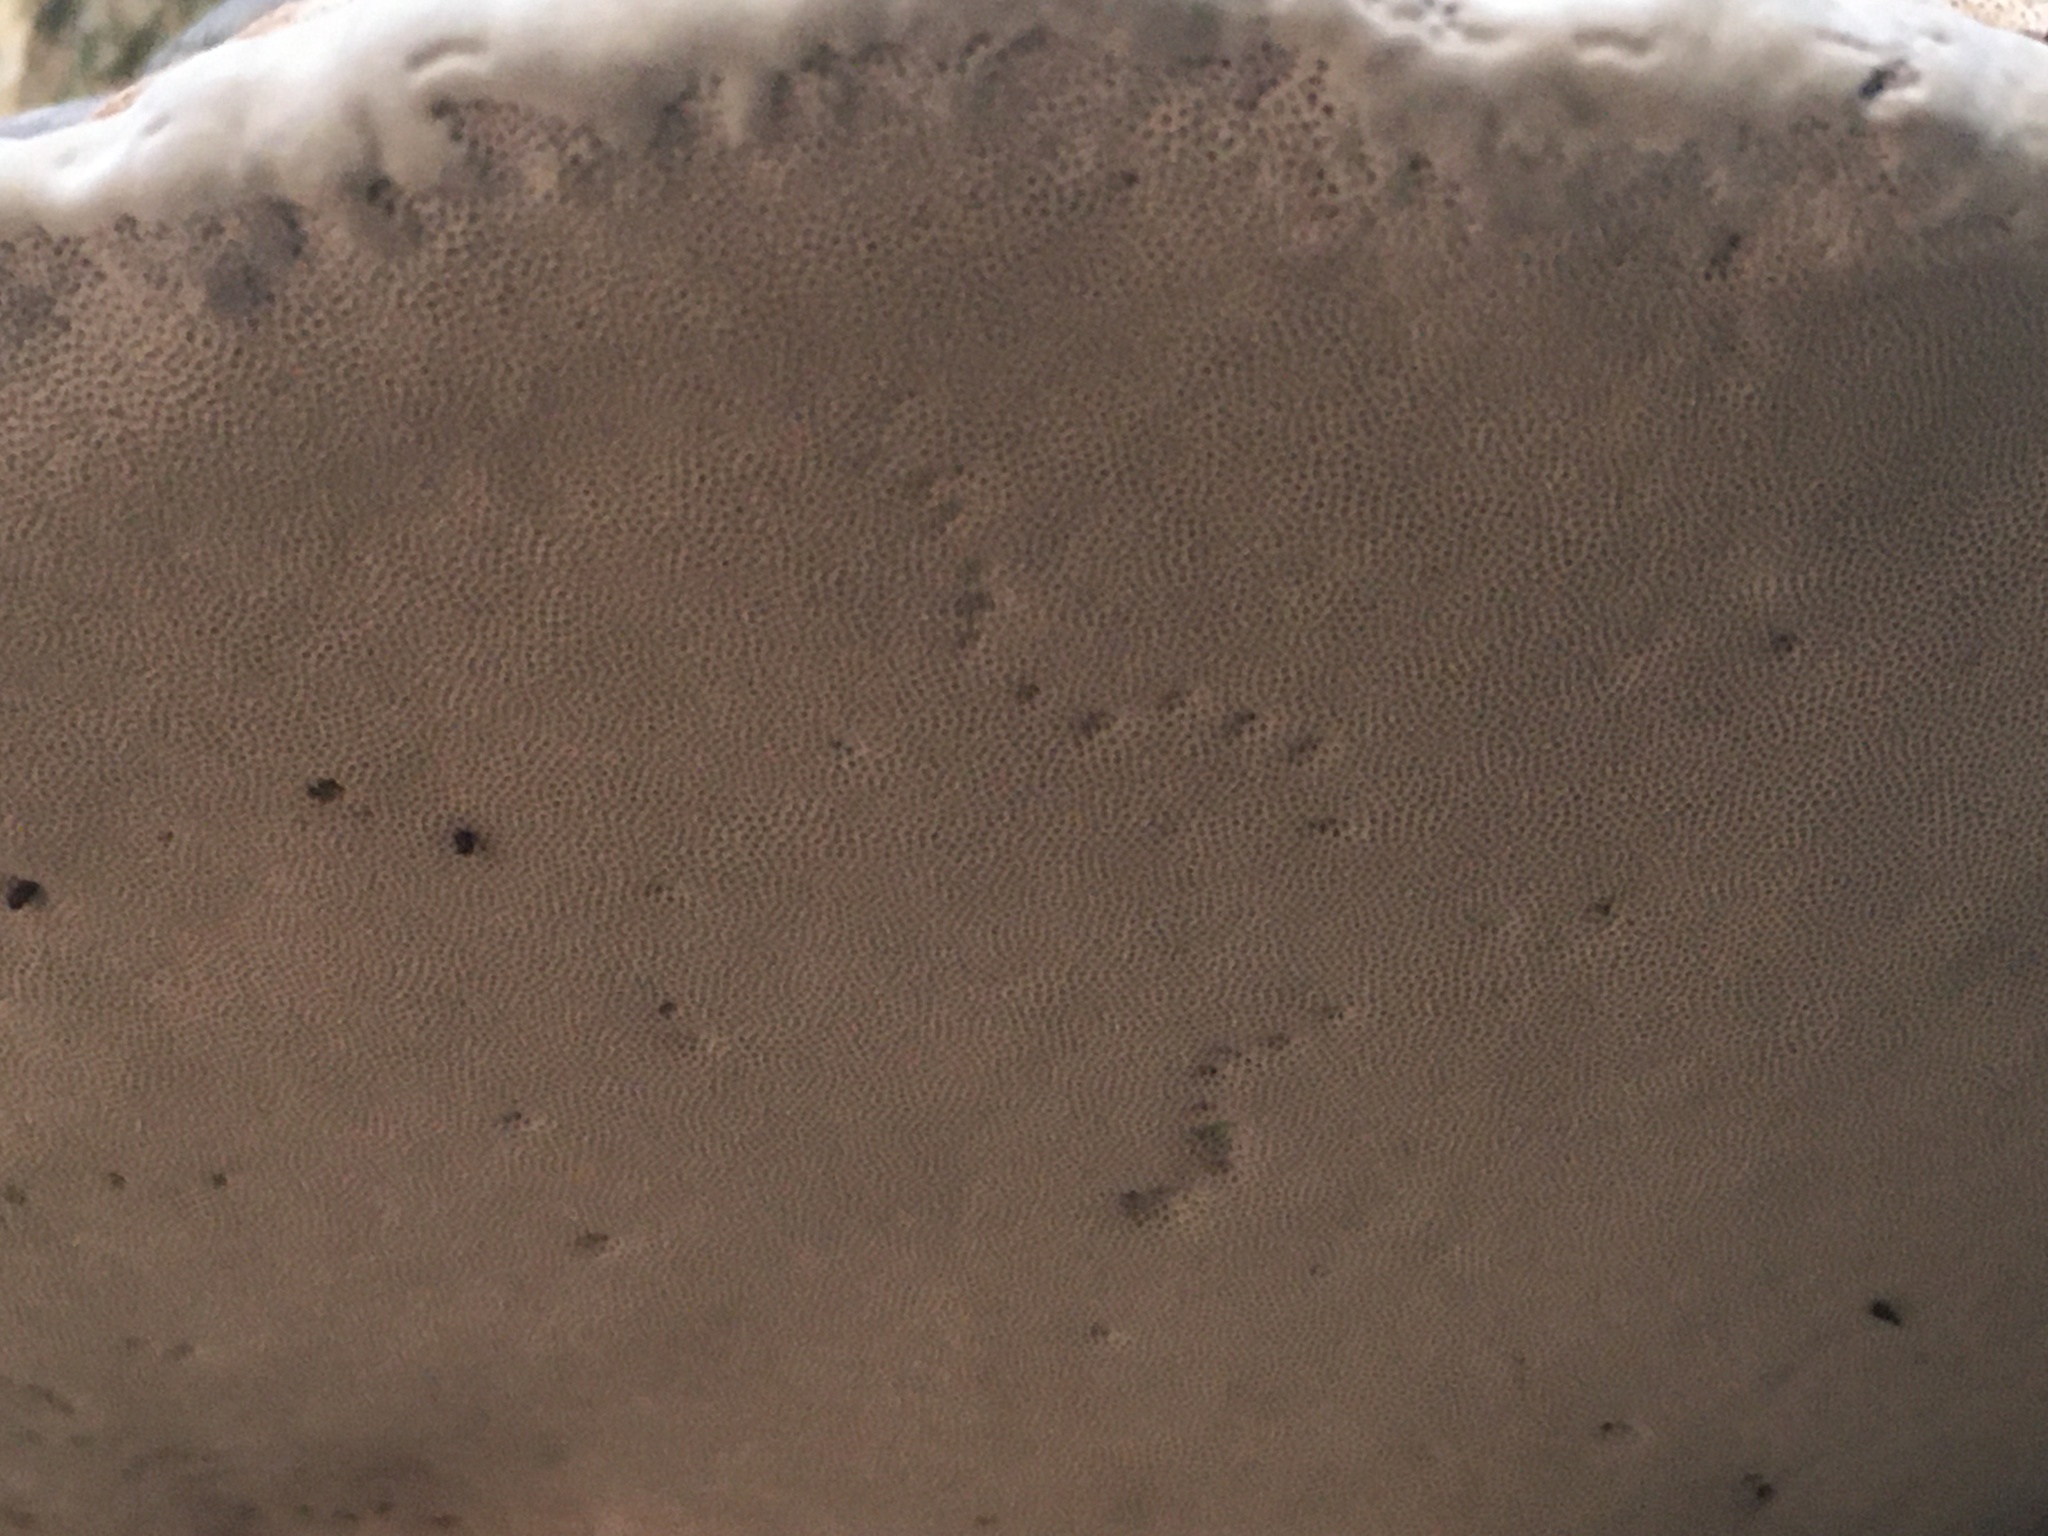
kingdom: Fungi
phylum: Basidiomycota
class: Agaricomycetes
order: Polyporales
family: Polyporaceae
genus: Fomes
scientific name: Fomes fomentarius
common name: Hoof fungus
